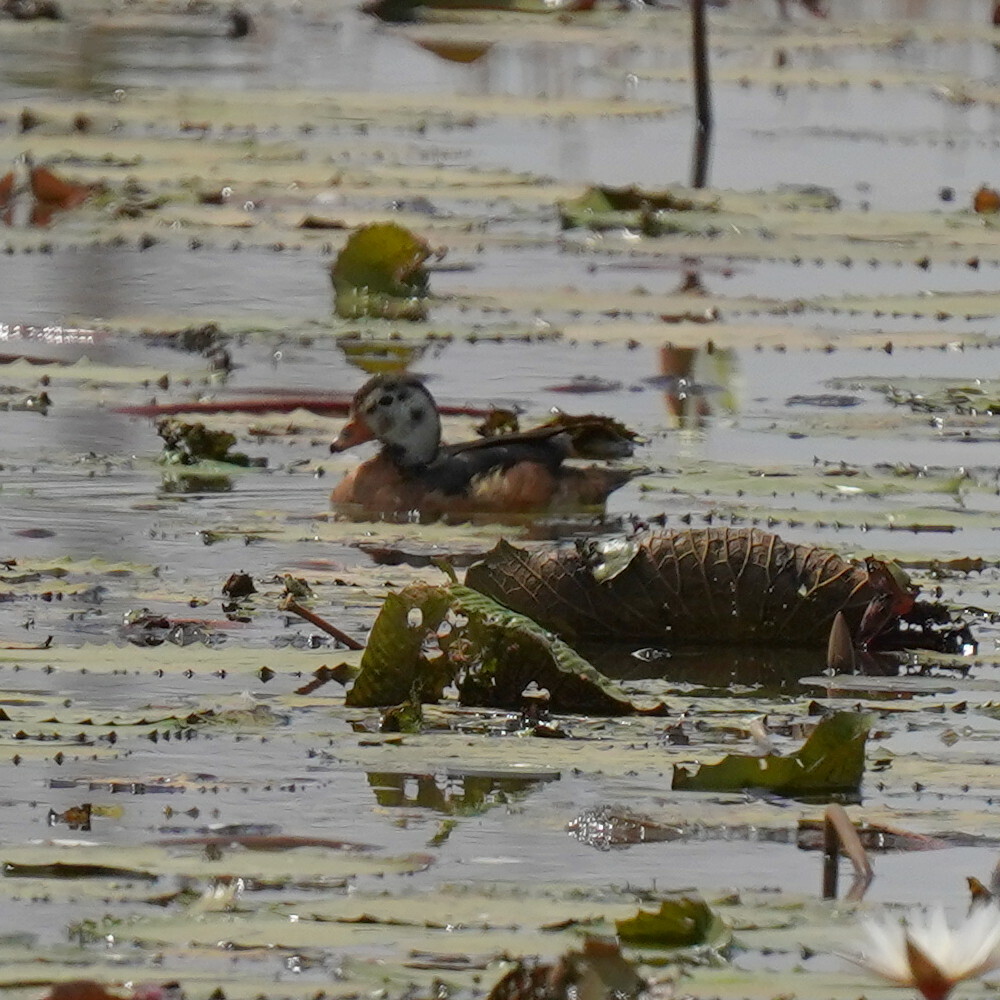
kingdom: Animalia
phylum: Chordata
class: Aves
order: Anseriformes
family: Anatidae
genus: Nettapus
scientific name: Nettapus auritus
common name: African pygmy-goose
